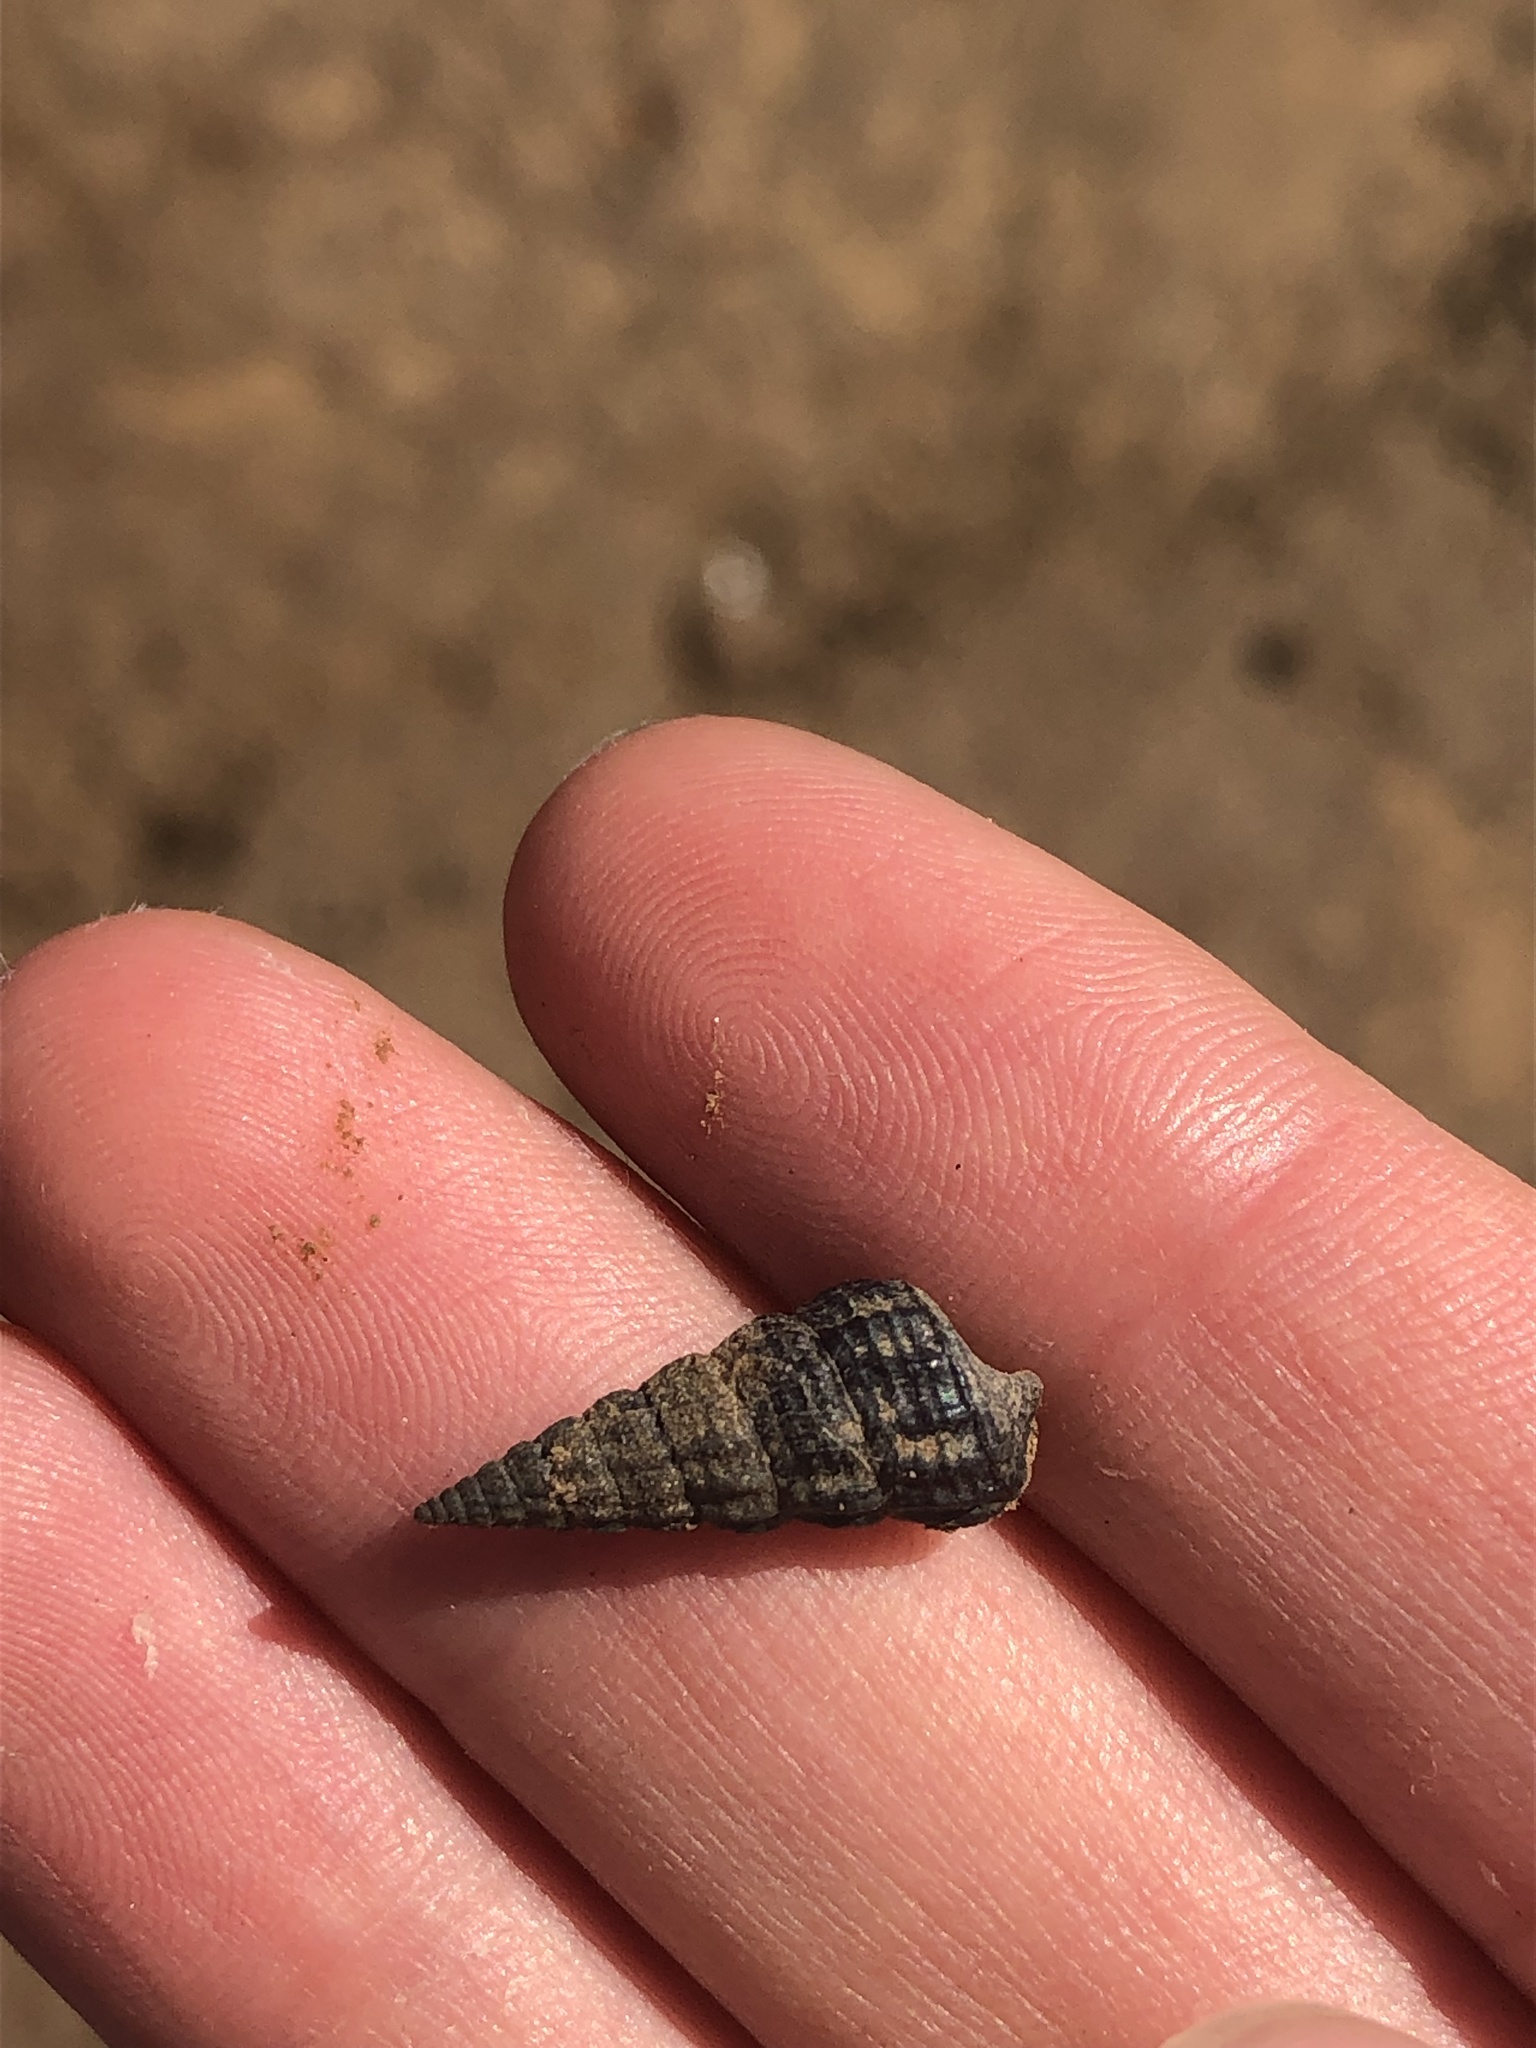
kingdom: Animalia
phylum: Mollusca
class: Gastropoda
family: Potamididae
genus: Cerithideopsis
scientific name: Cerithideopsis californica
